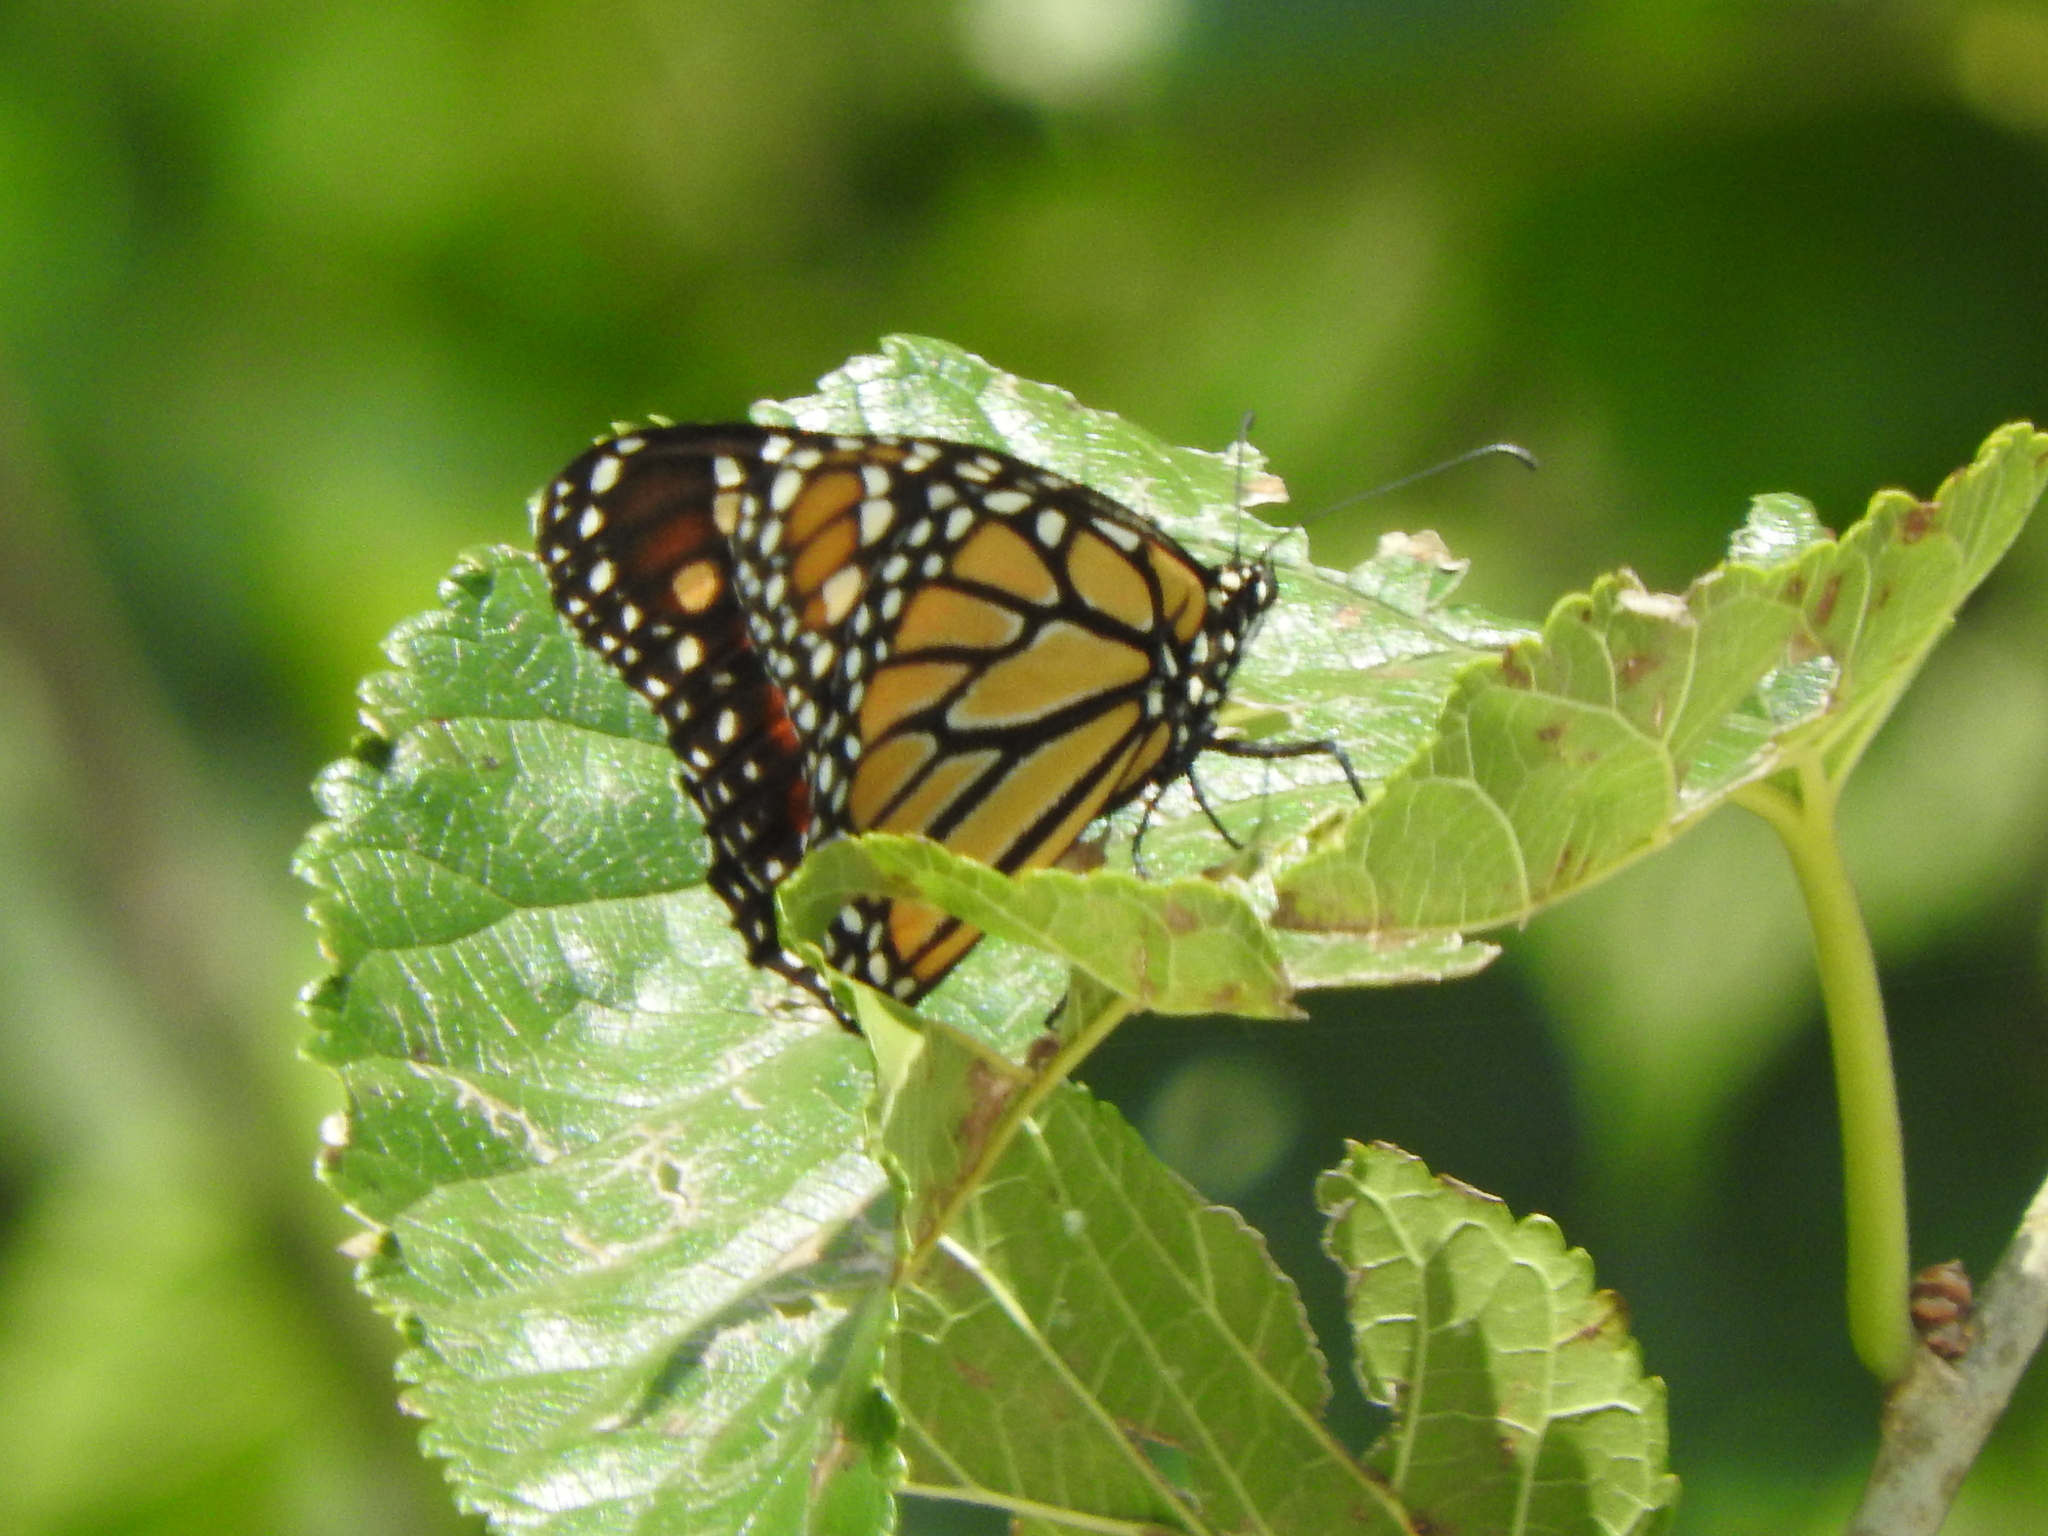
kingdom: Animalia
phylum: Arthropoda
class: Insecta
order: Lepidoptera
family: Nymphalidae
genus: Danaus
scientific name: Danaus plexippus
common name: Monarch
